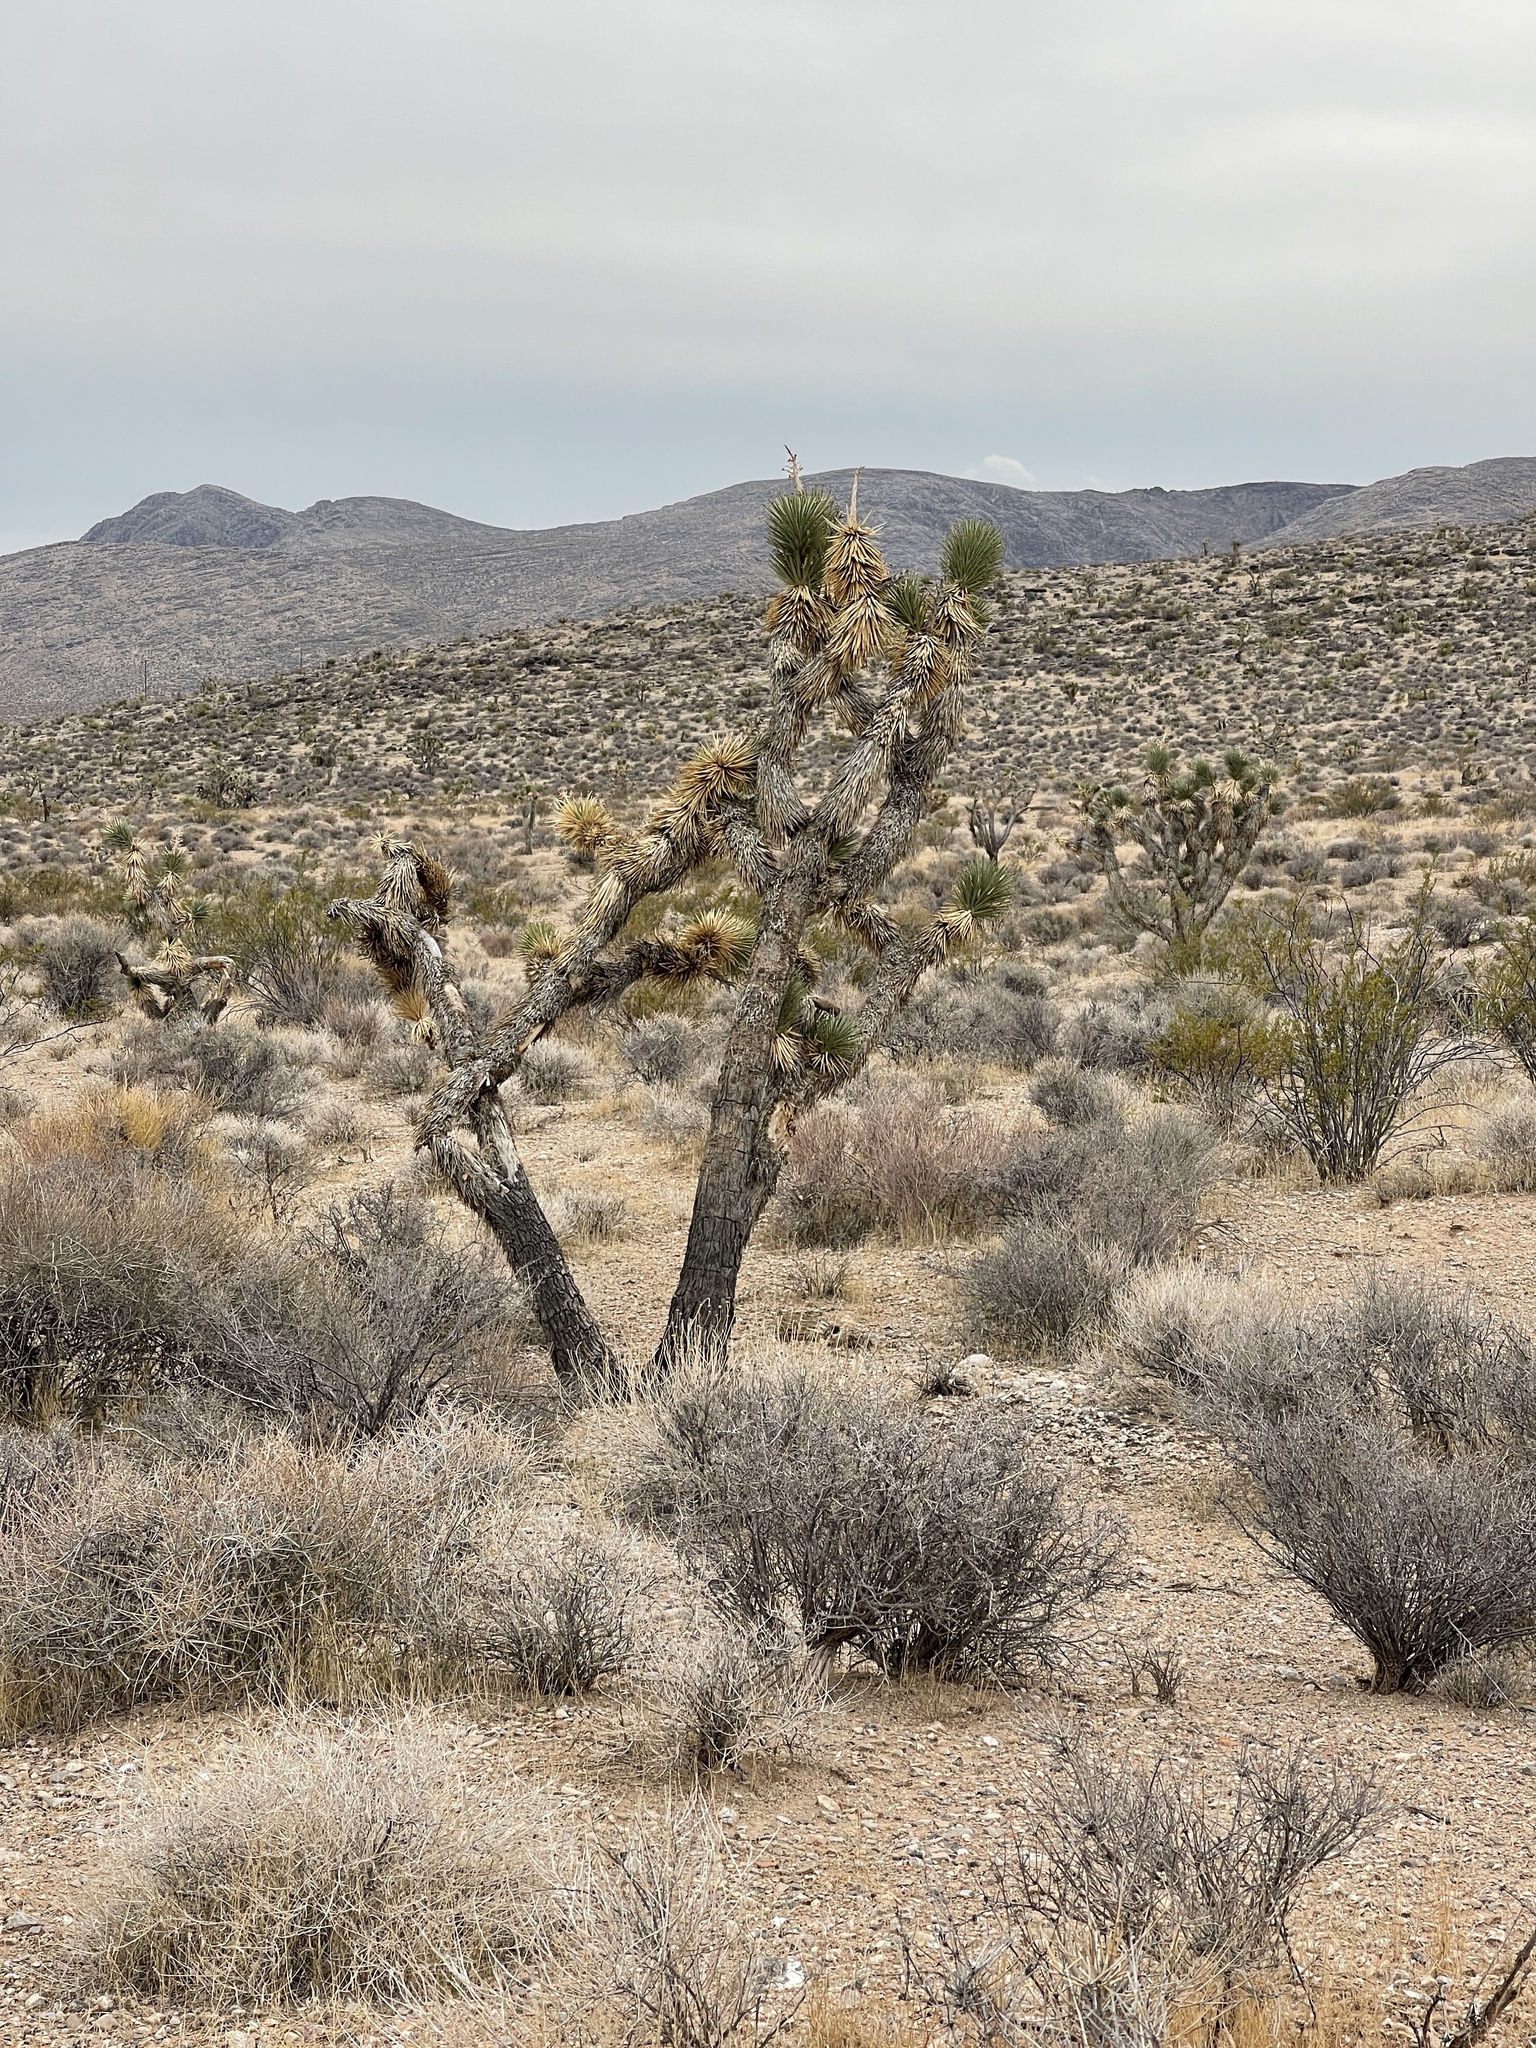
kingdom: Plantae
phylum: Tracheophyta
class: Liliopsida
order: Asparagales
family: Asparagaceae
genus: Yucca
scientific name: Yucca brevifolia
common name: Joshua tree
